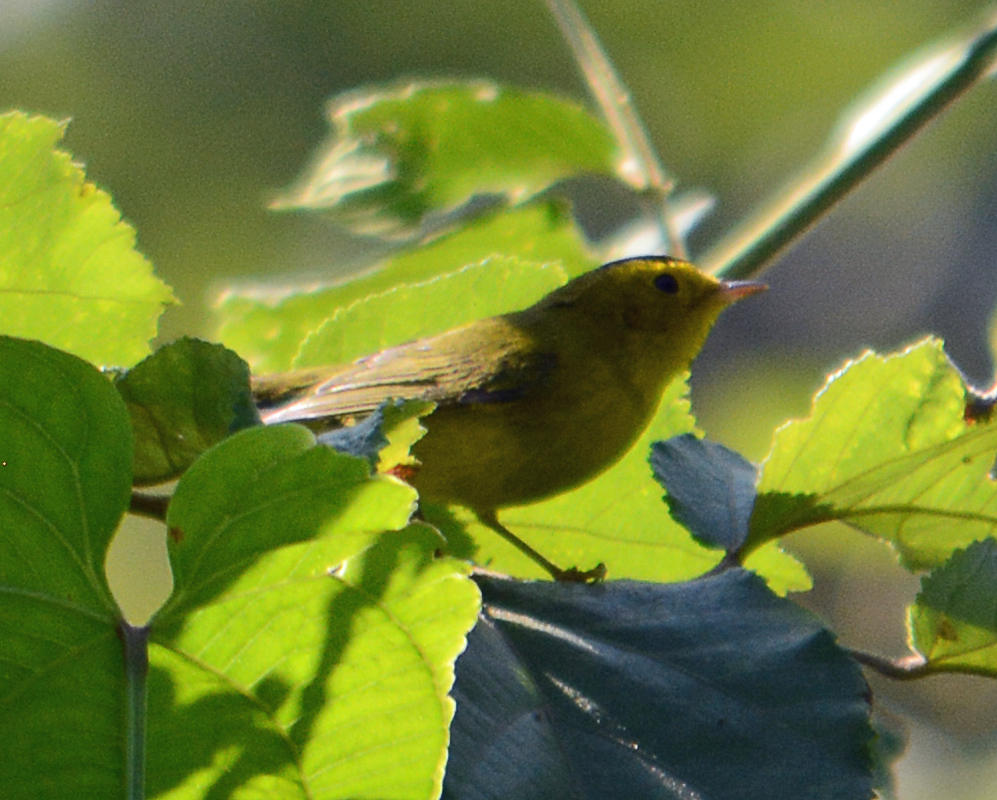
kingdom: Animalia
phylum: Chordata
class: Aves
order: Passeriformes
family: Parulidae
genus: Cardellina
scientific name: Cardellina pusilla
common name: Wilson's warbler
